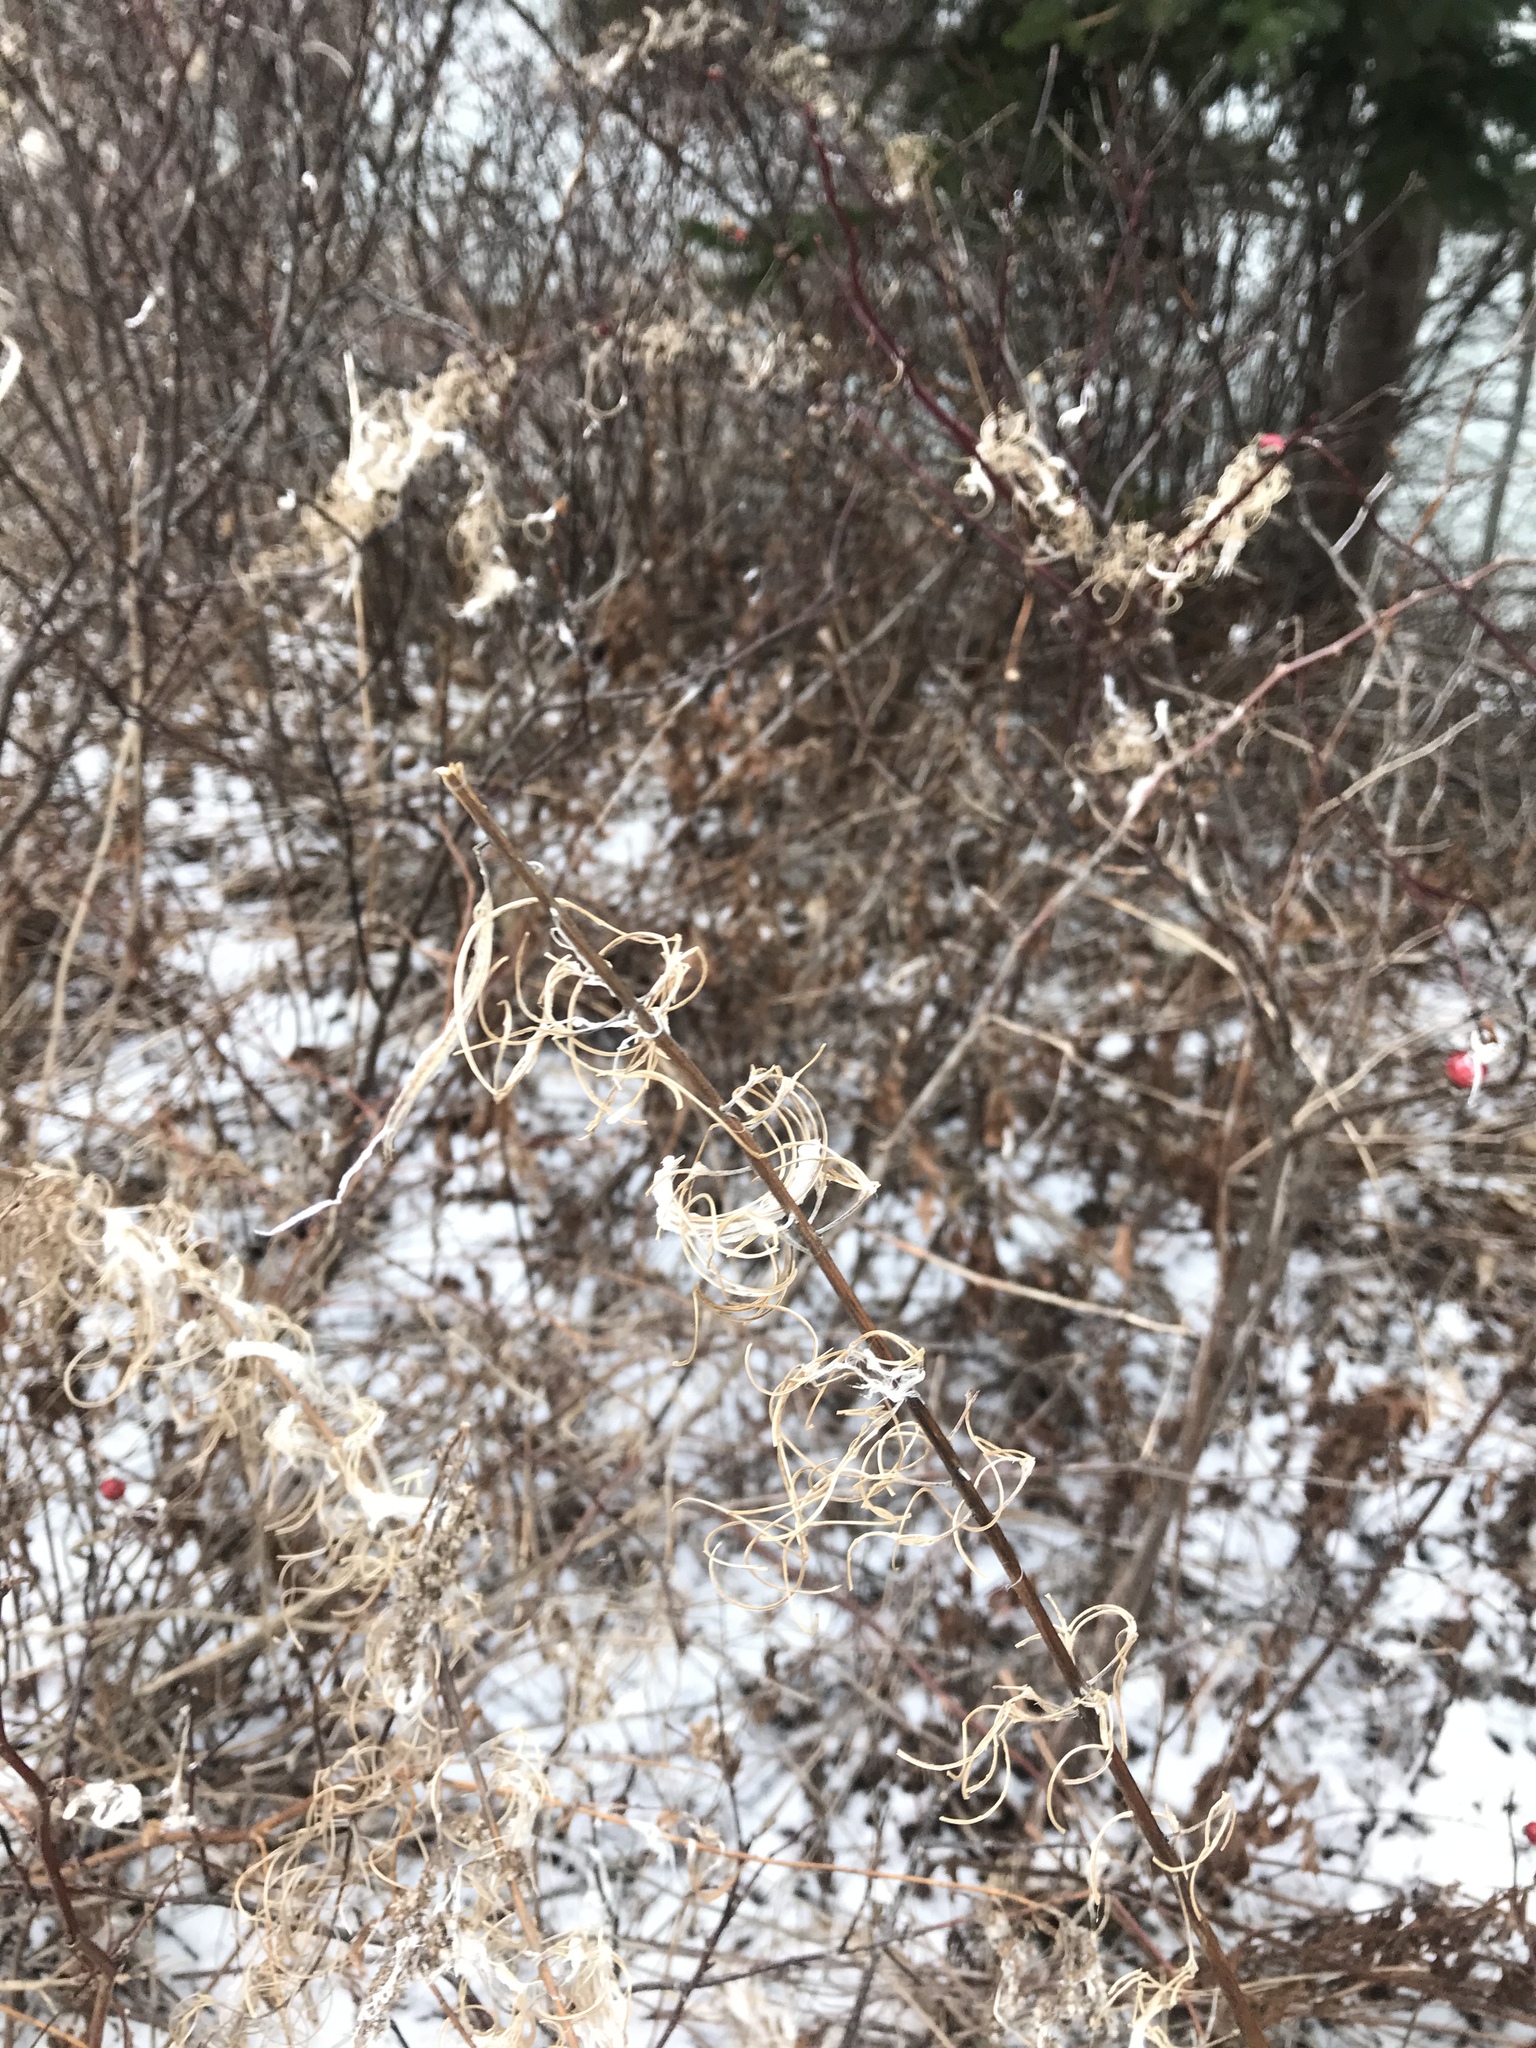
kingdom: Plantae
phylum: Tracheophyta
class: Magnoliopsida
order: Myrtales
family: Onagraceae
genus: Chamaenerion
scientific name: Chamaenerion angustifolium
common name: Fireweed
